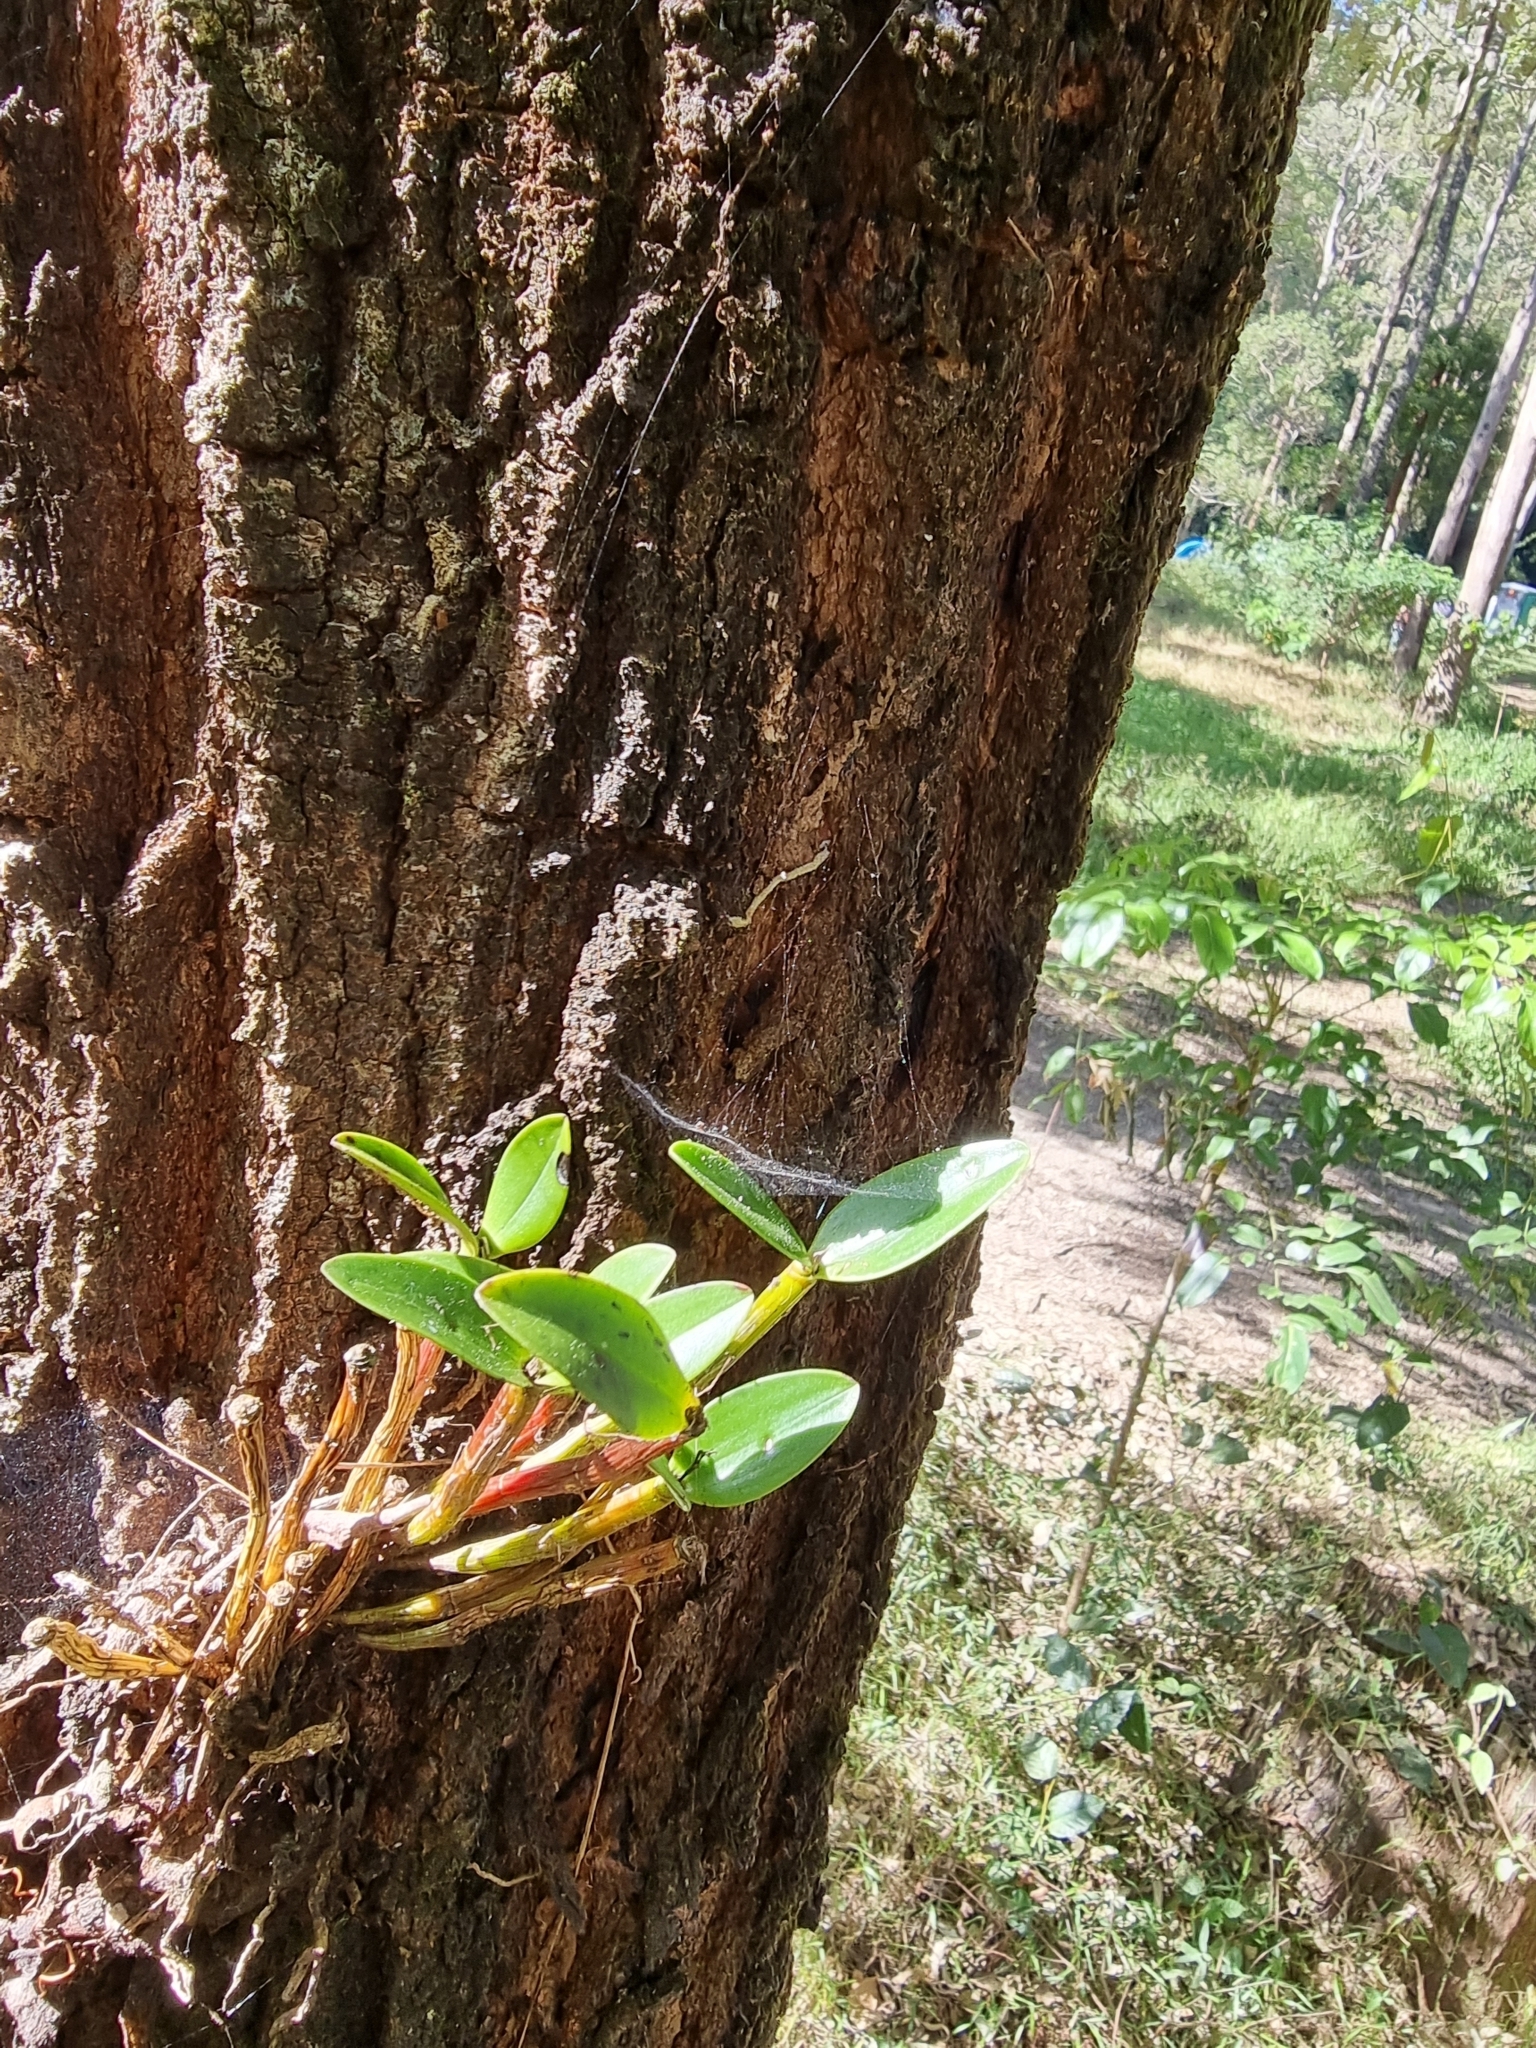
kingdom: Plantae
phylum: Tracheophyta
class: Liliopsida
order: Asparagales
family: Orchidaceae
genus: Dendrobium
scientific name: Dendrobium aemulum
